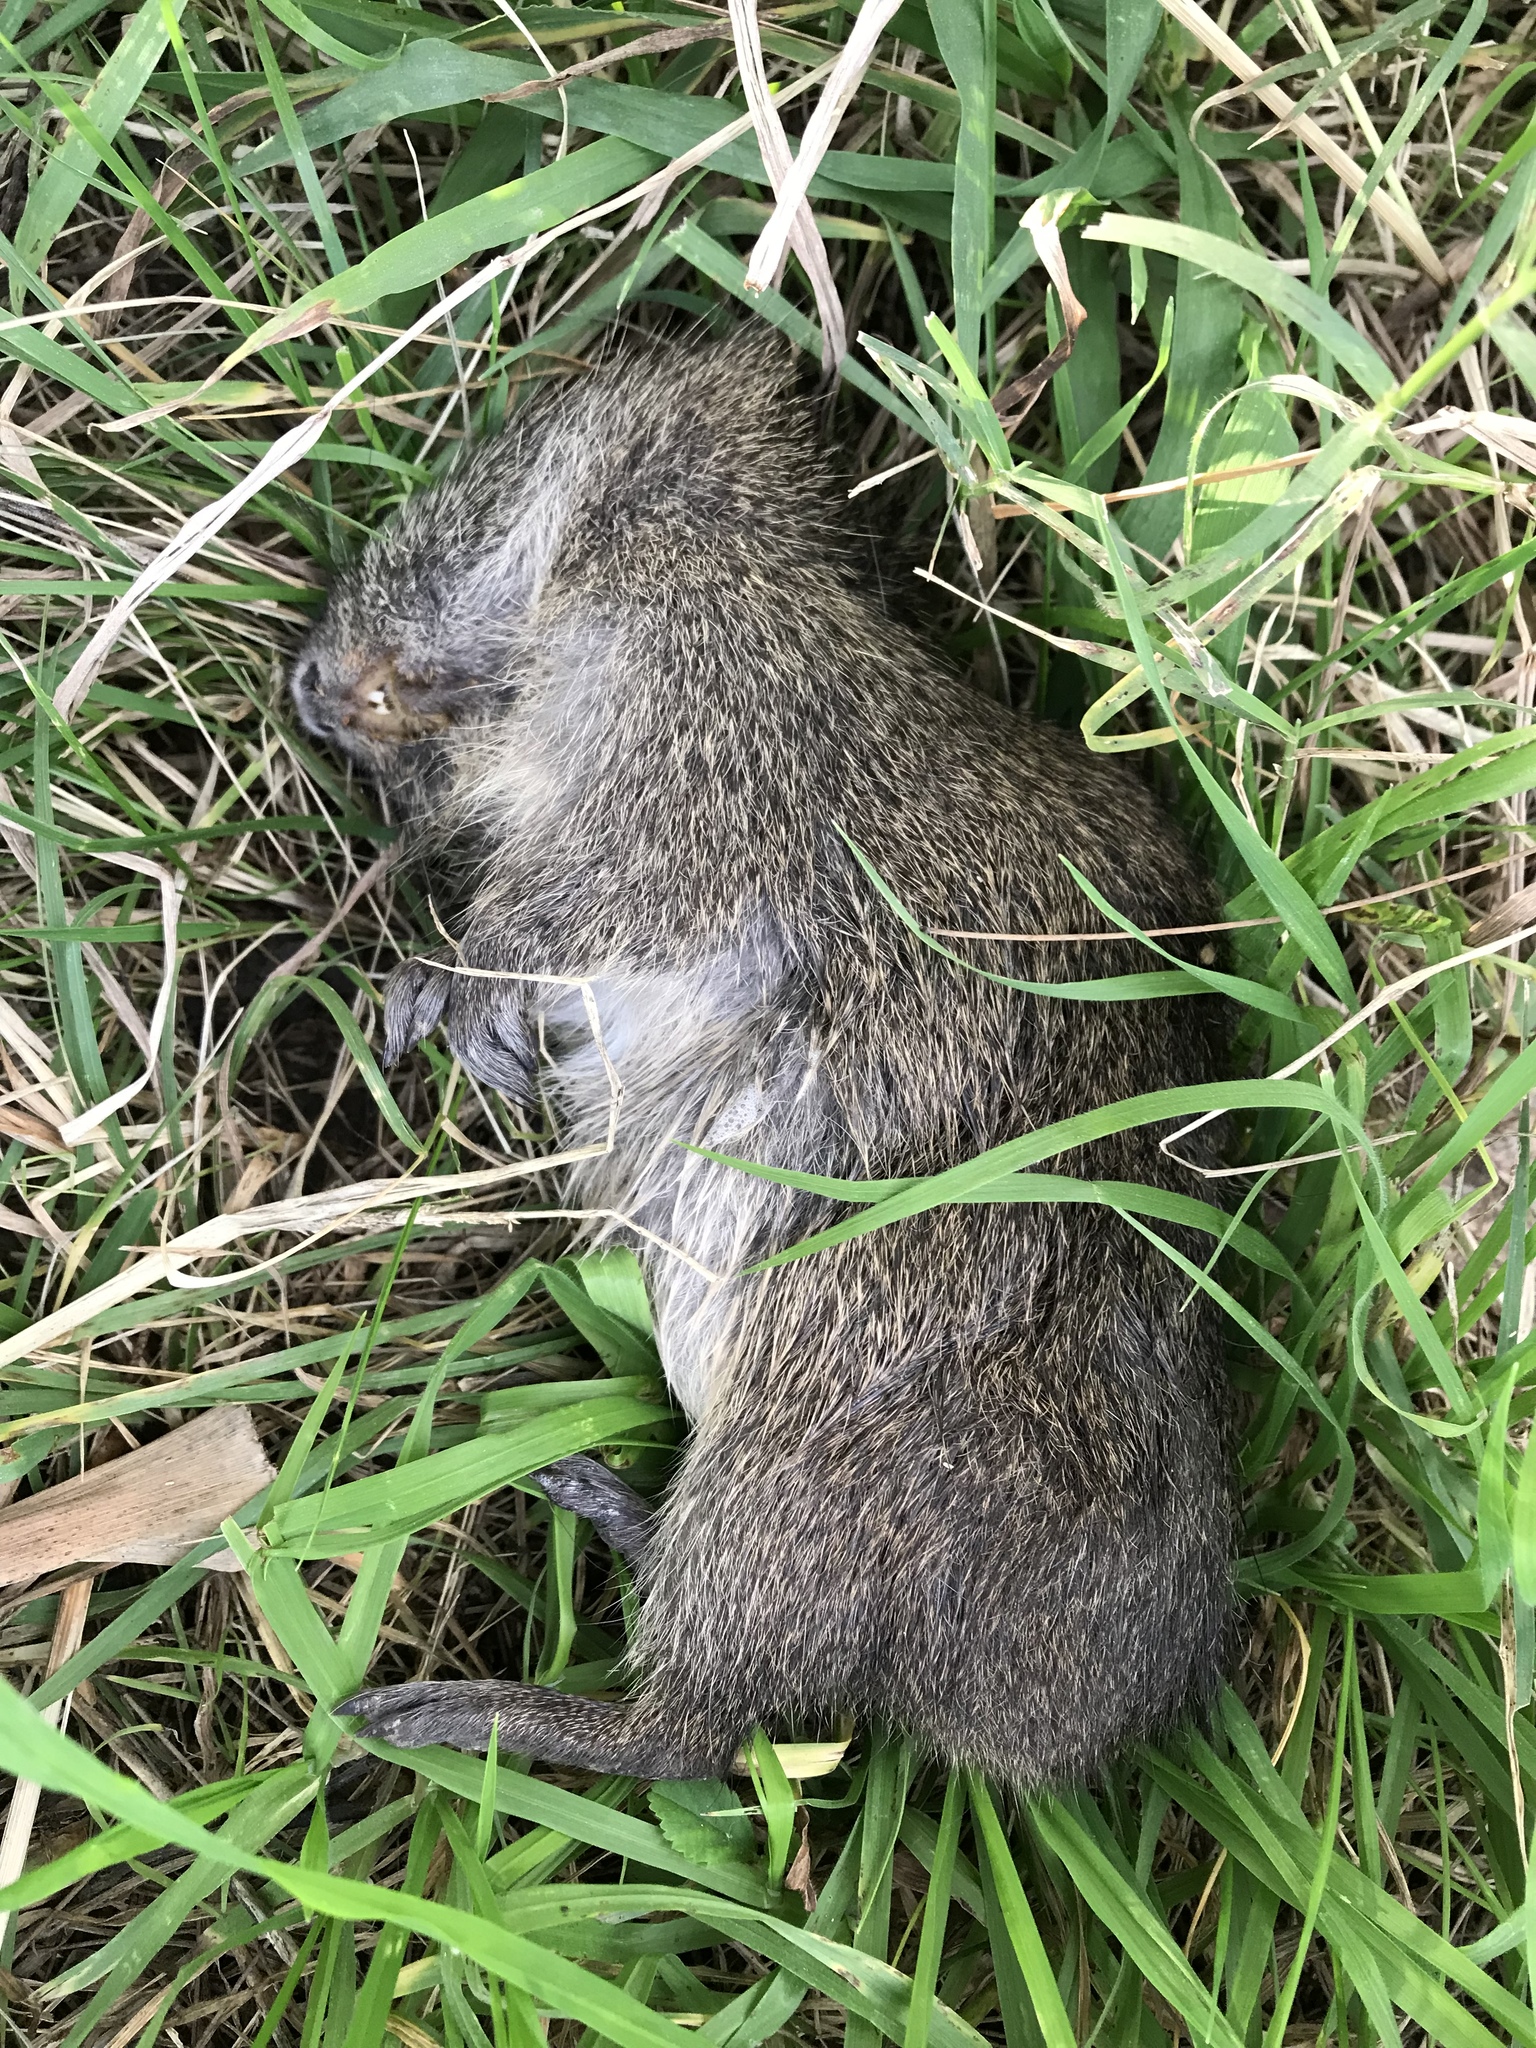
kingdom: Animalia
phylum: Chordata
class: Mammalia
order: Rodentia
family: Caviidae
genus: Cavia
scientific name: Cavia aperea
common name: Brazilian guinea pig
